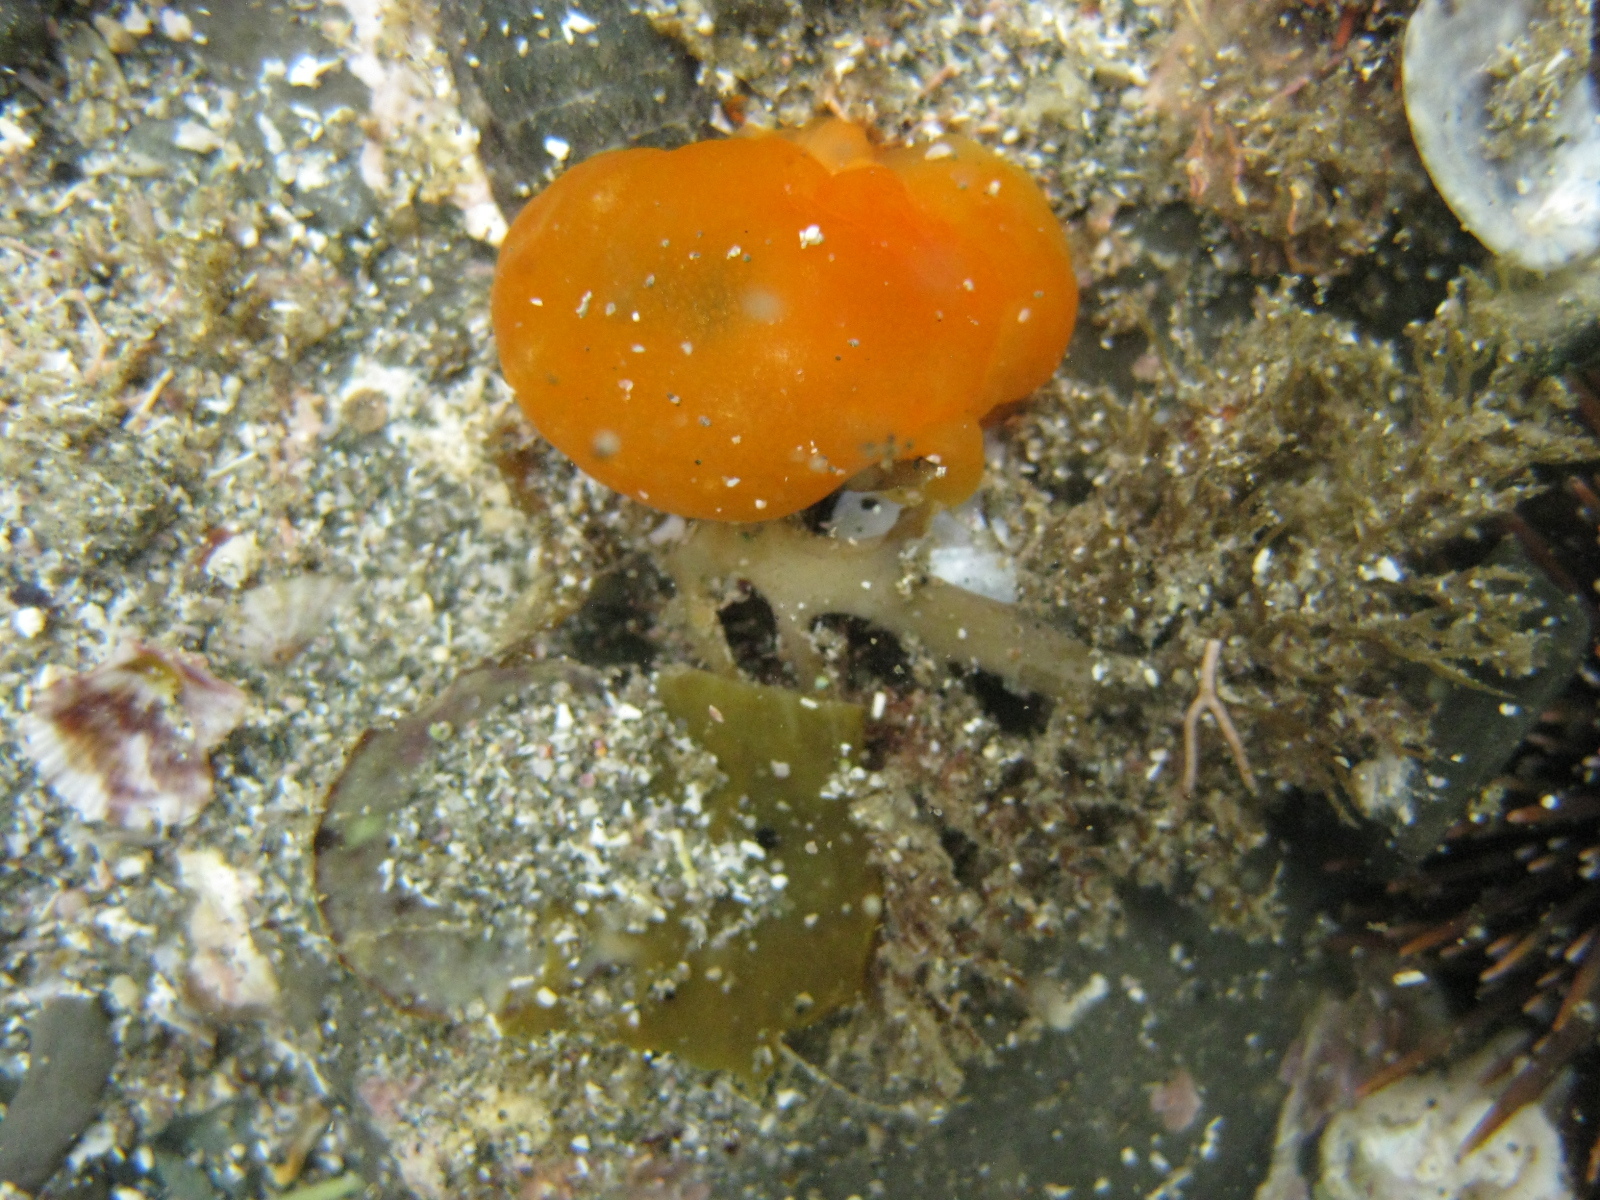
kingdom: Animalia
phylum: Mollusca
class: Gastropoda
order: Pleurobranchida
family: Pleurobranchidae
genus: Berthellina
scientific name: Berthellina citrina
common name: Lemon pleurobranch
